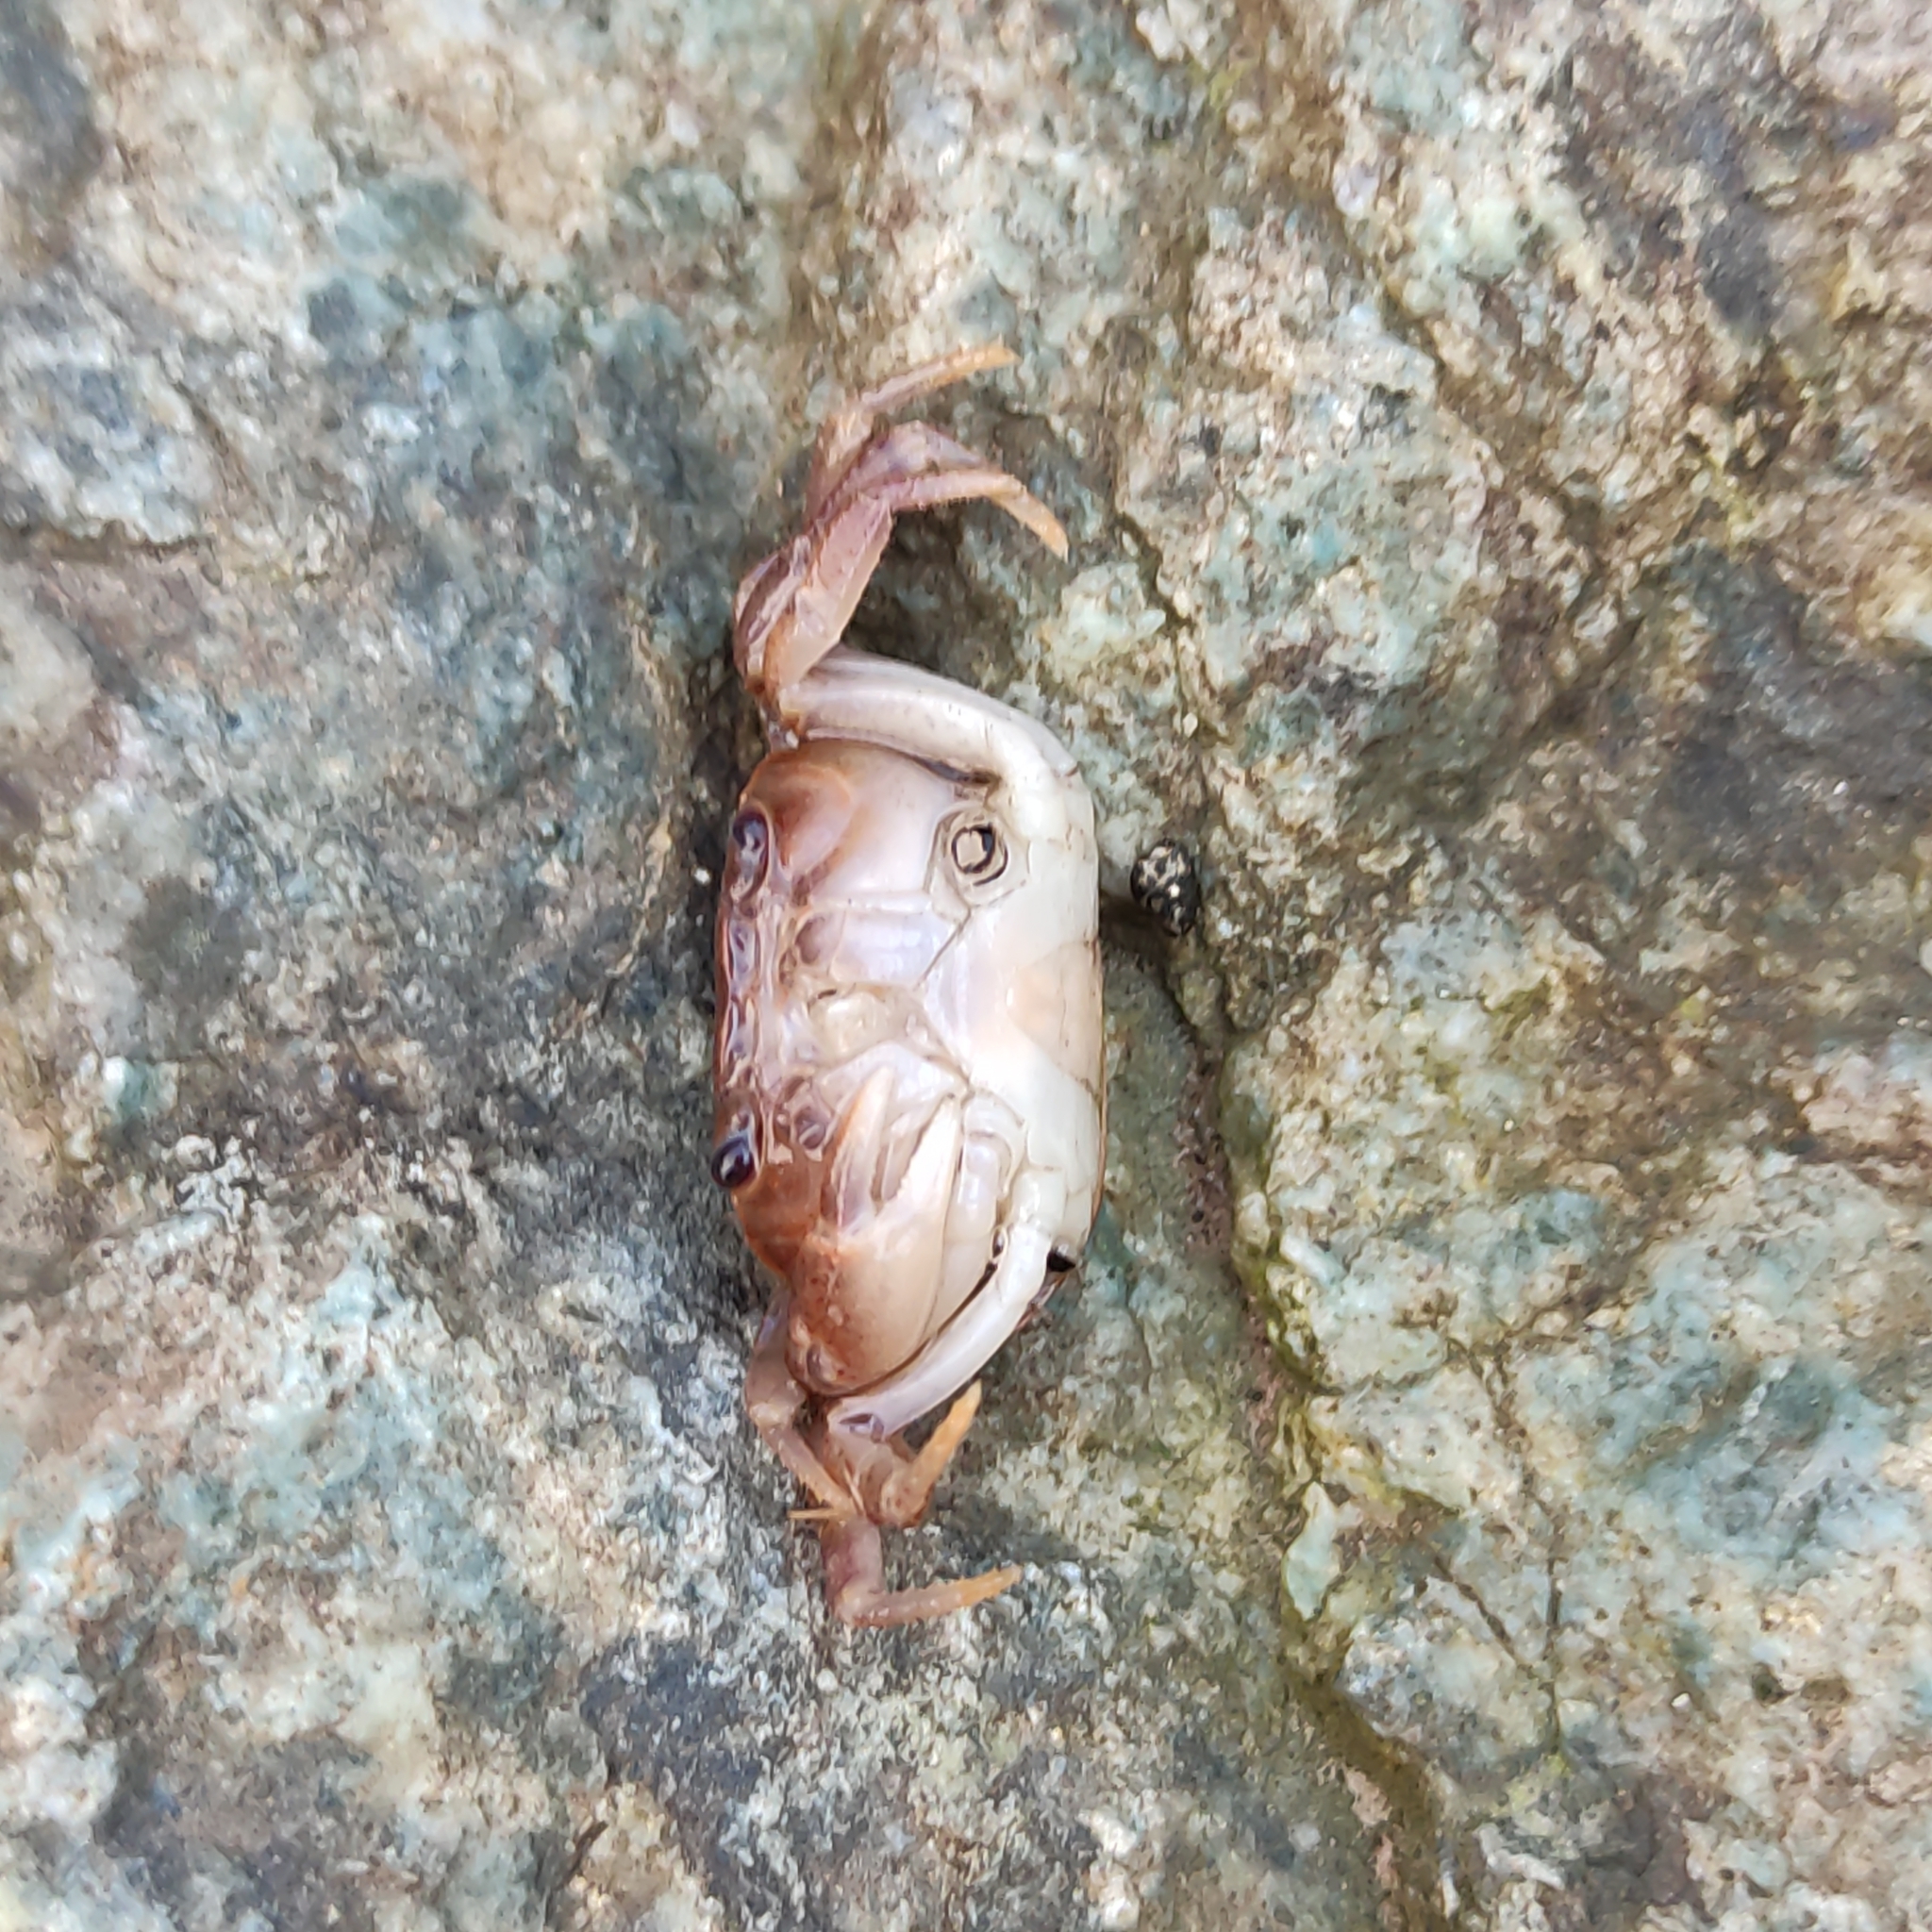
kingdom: Animalia
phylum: Arthropoda
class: Malacostraca
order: Decapoda
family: Potamidae
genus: Geothelphusa
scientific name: Geothelphusa dehaani
